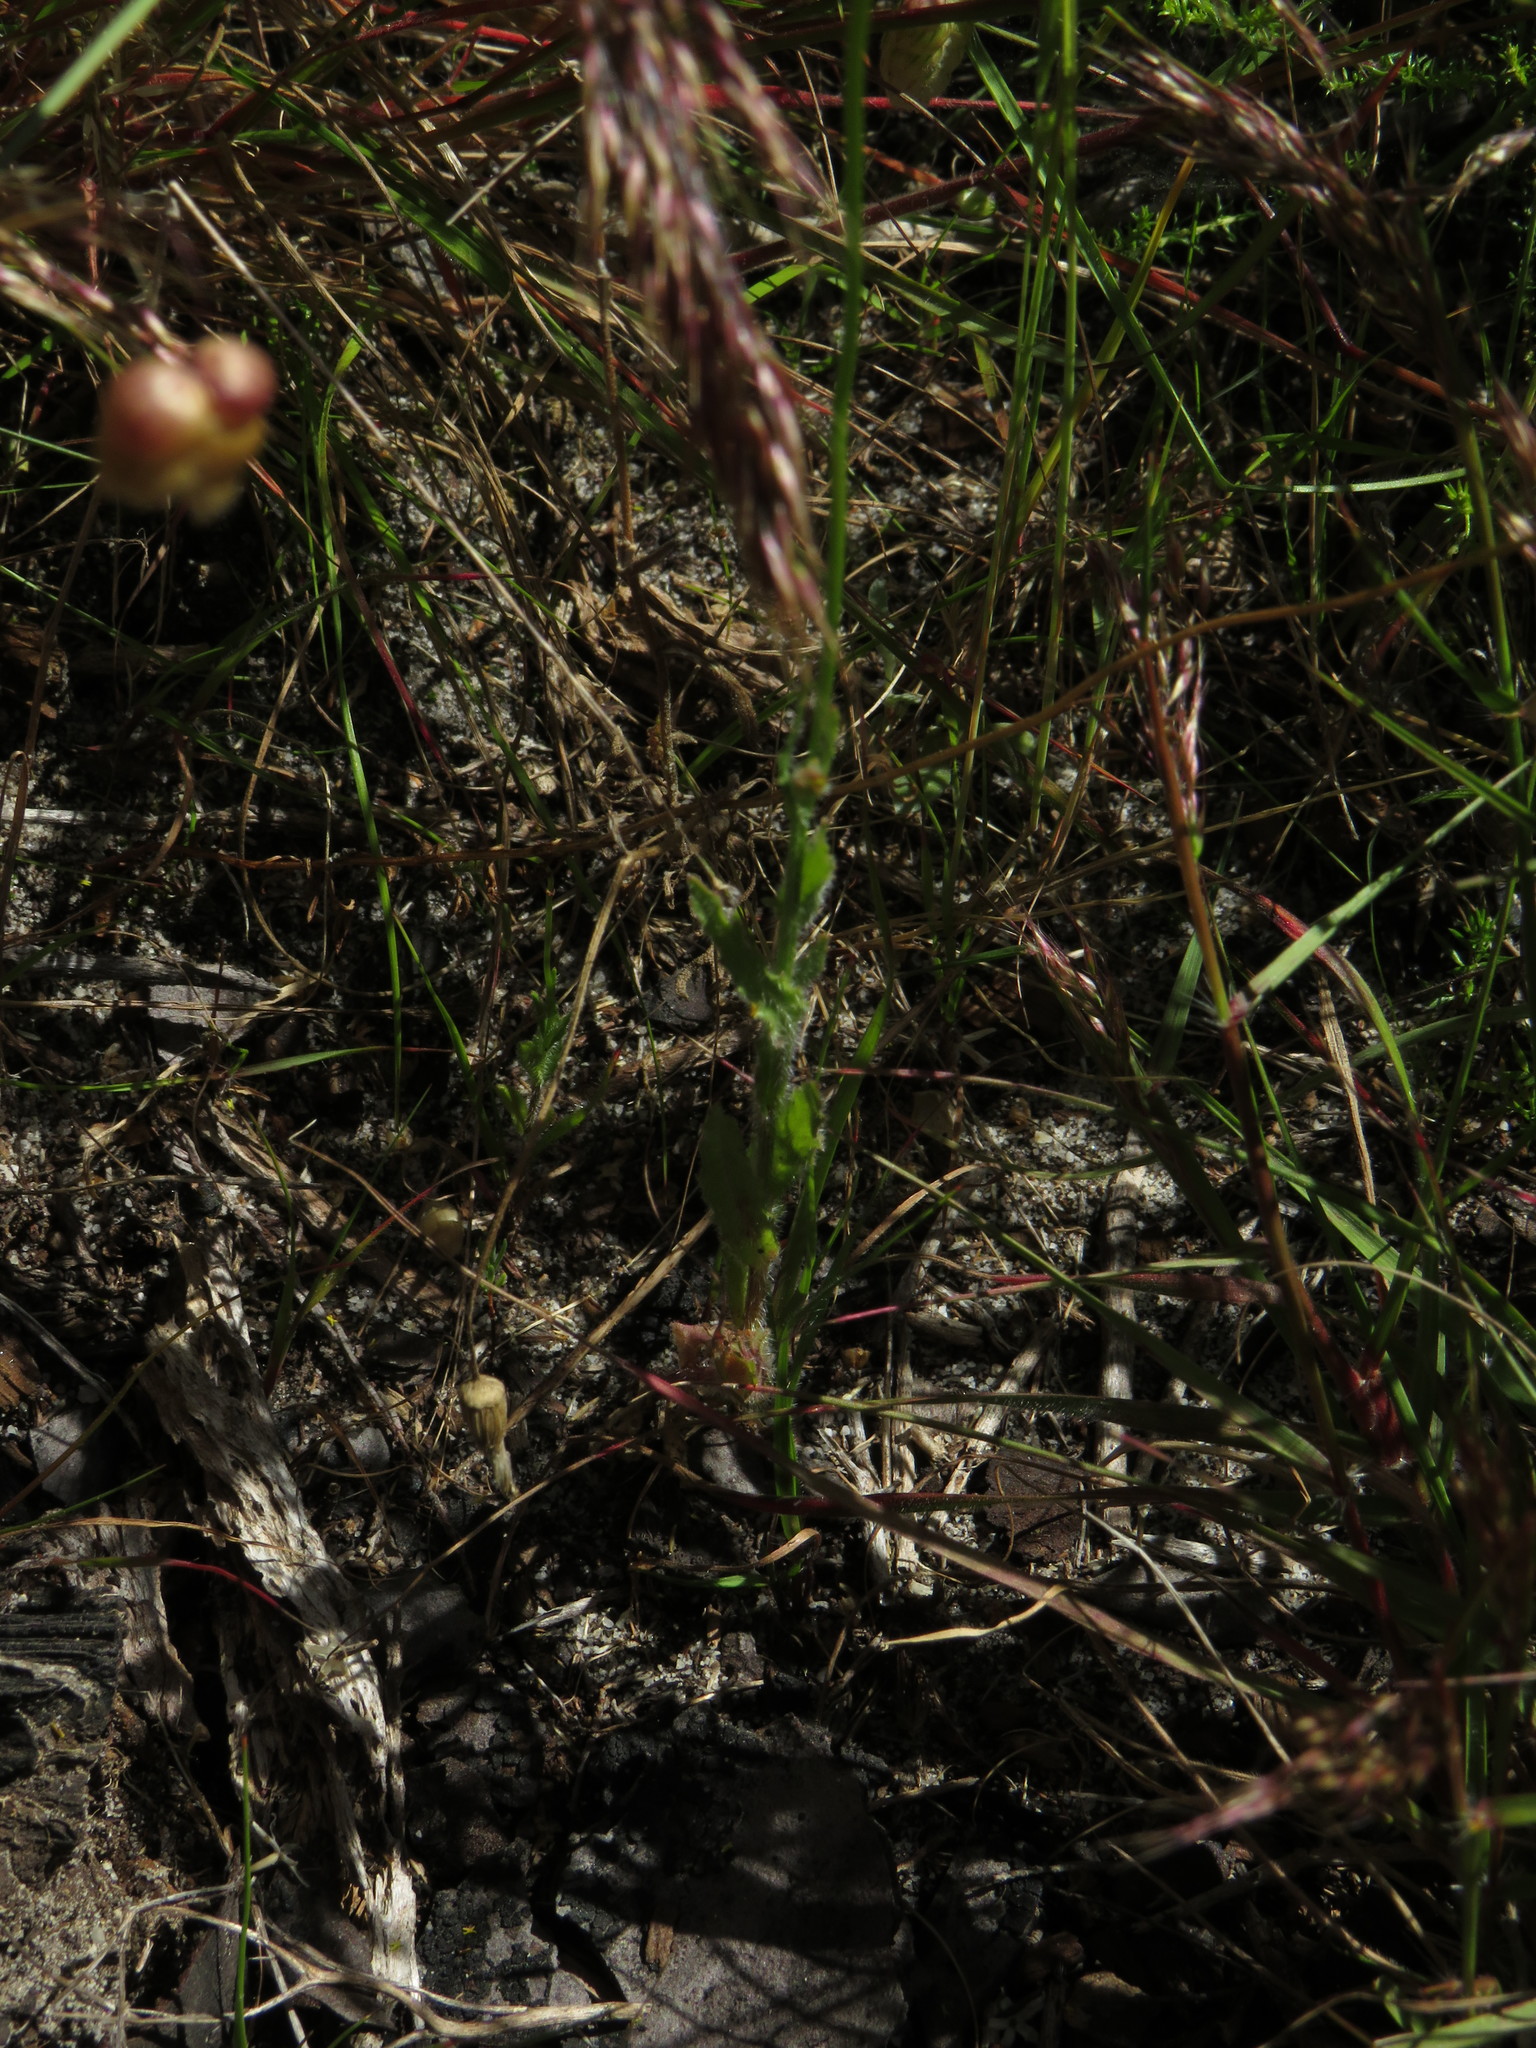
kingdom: Plantae
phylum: Tracheophyta
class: Magnoliopsida
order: Asterales
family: Campanulaceae
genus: Wahlenbergia
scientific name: Wahlenbergia capensis
